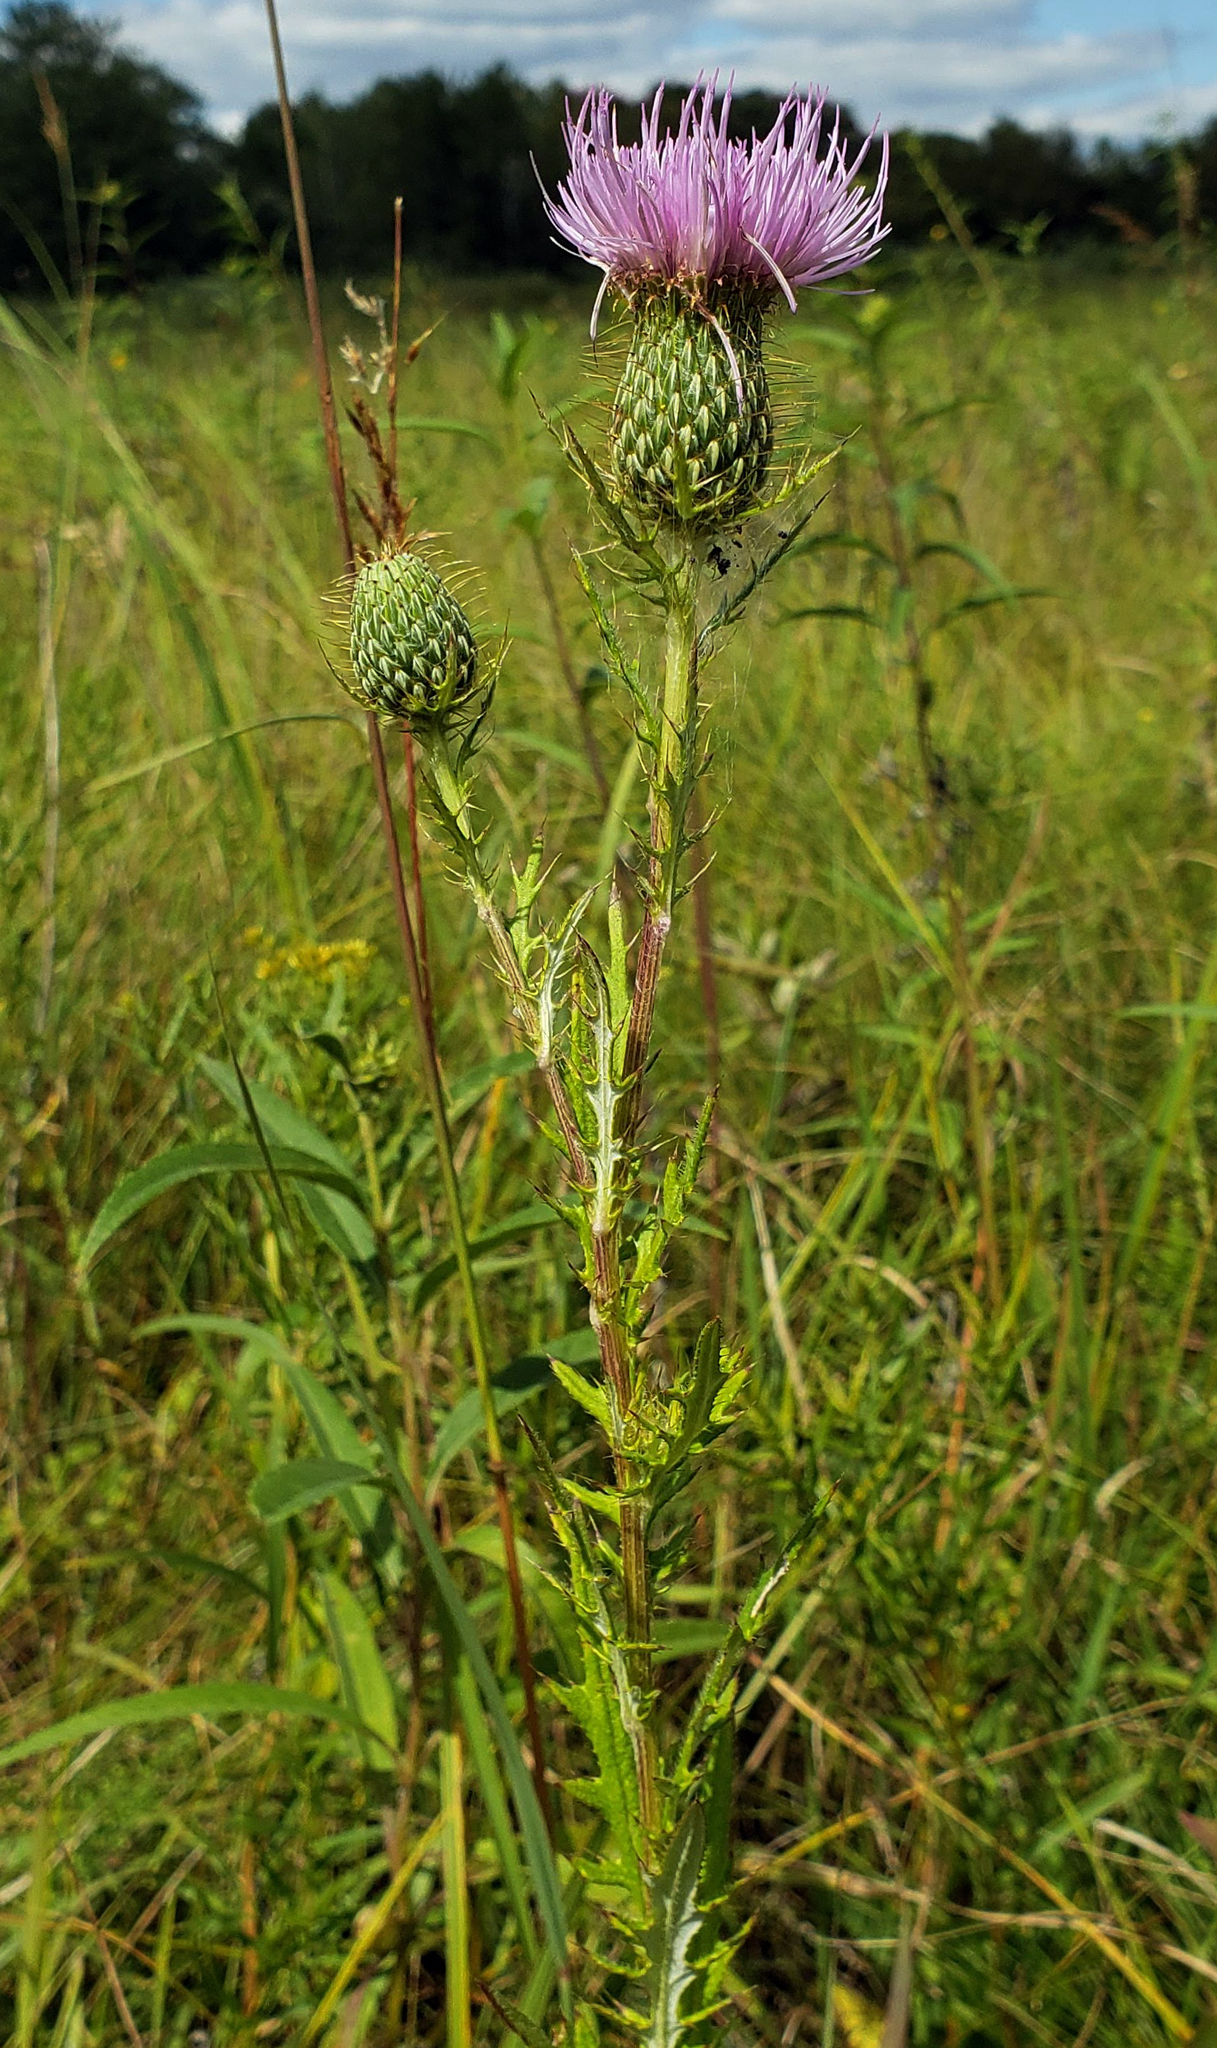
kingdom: Plantae
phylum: Tracheophyta
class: Magnoliopsida
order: Asterales
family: Asteraceae
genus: Cirsium
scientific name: Cirsium discolor
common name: Field thistle
